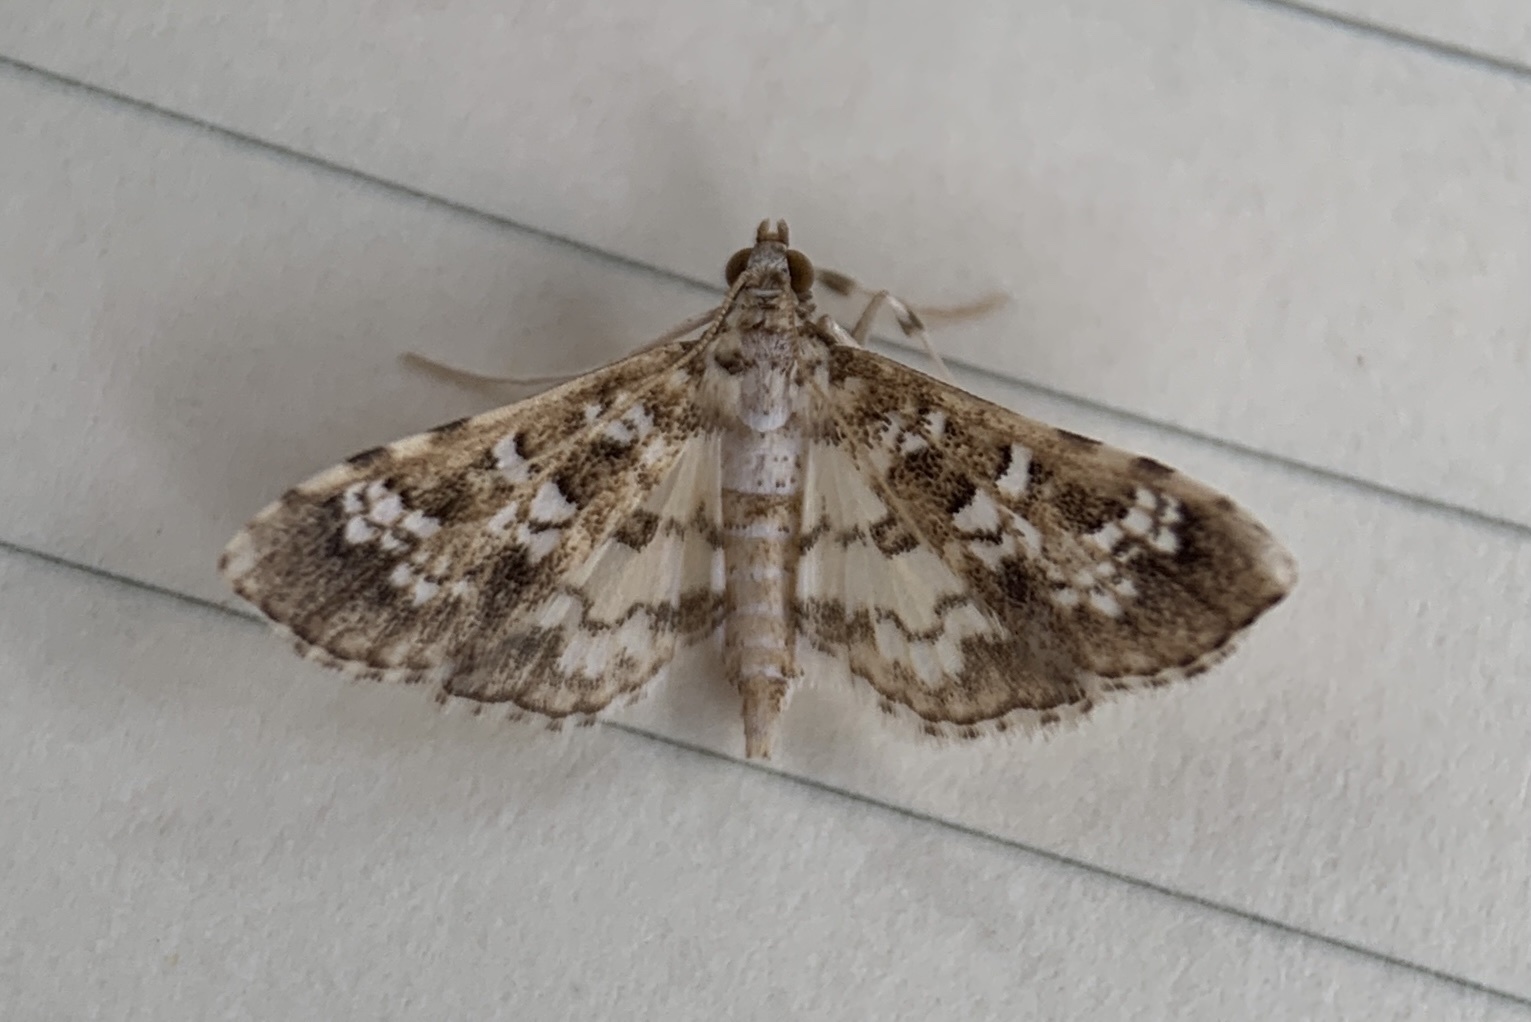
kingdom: Animalia
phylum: Arthropoda
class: Insecta
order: Lepidoptera
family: Crambidae
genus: Samea
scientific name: Samea multiplicalis
